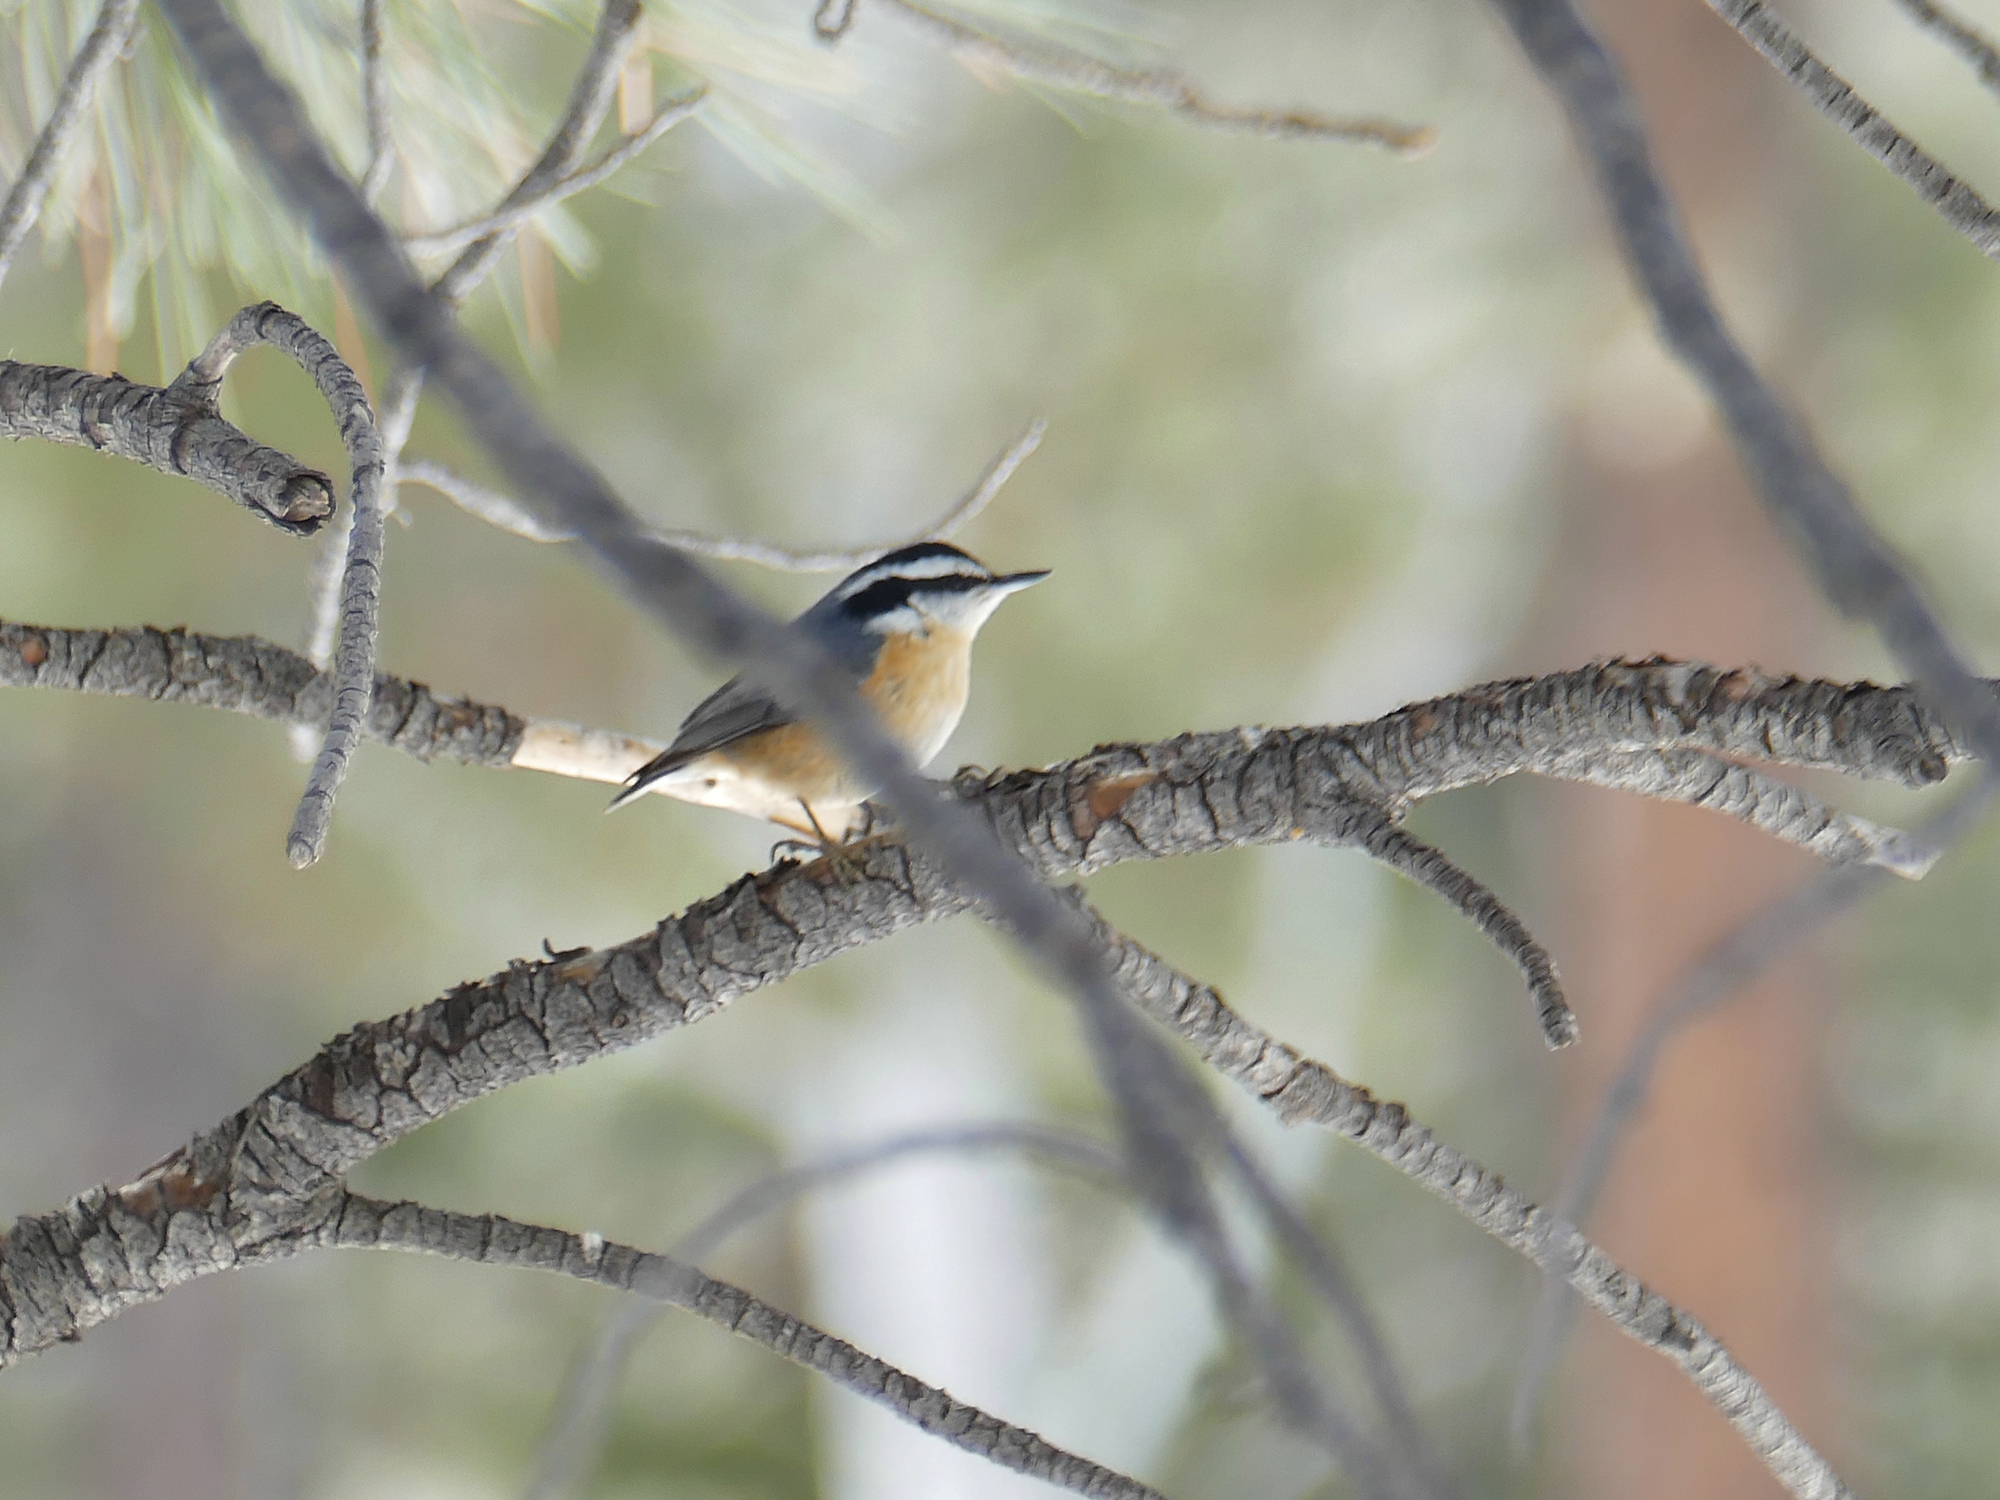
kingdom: Animalia
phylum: Chordata
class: Aves
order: Passeriformes
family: Sittidae
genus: Sitta
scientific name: Sitta canadensis
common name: Red-breasted nuthatch
